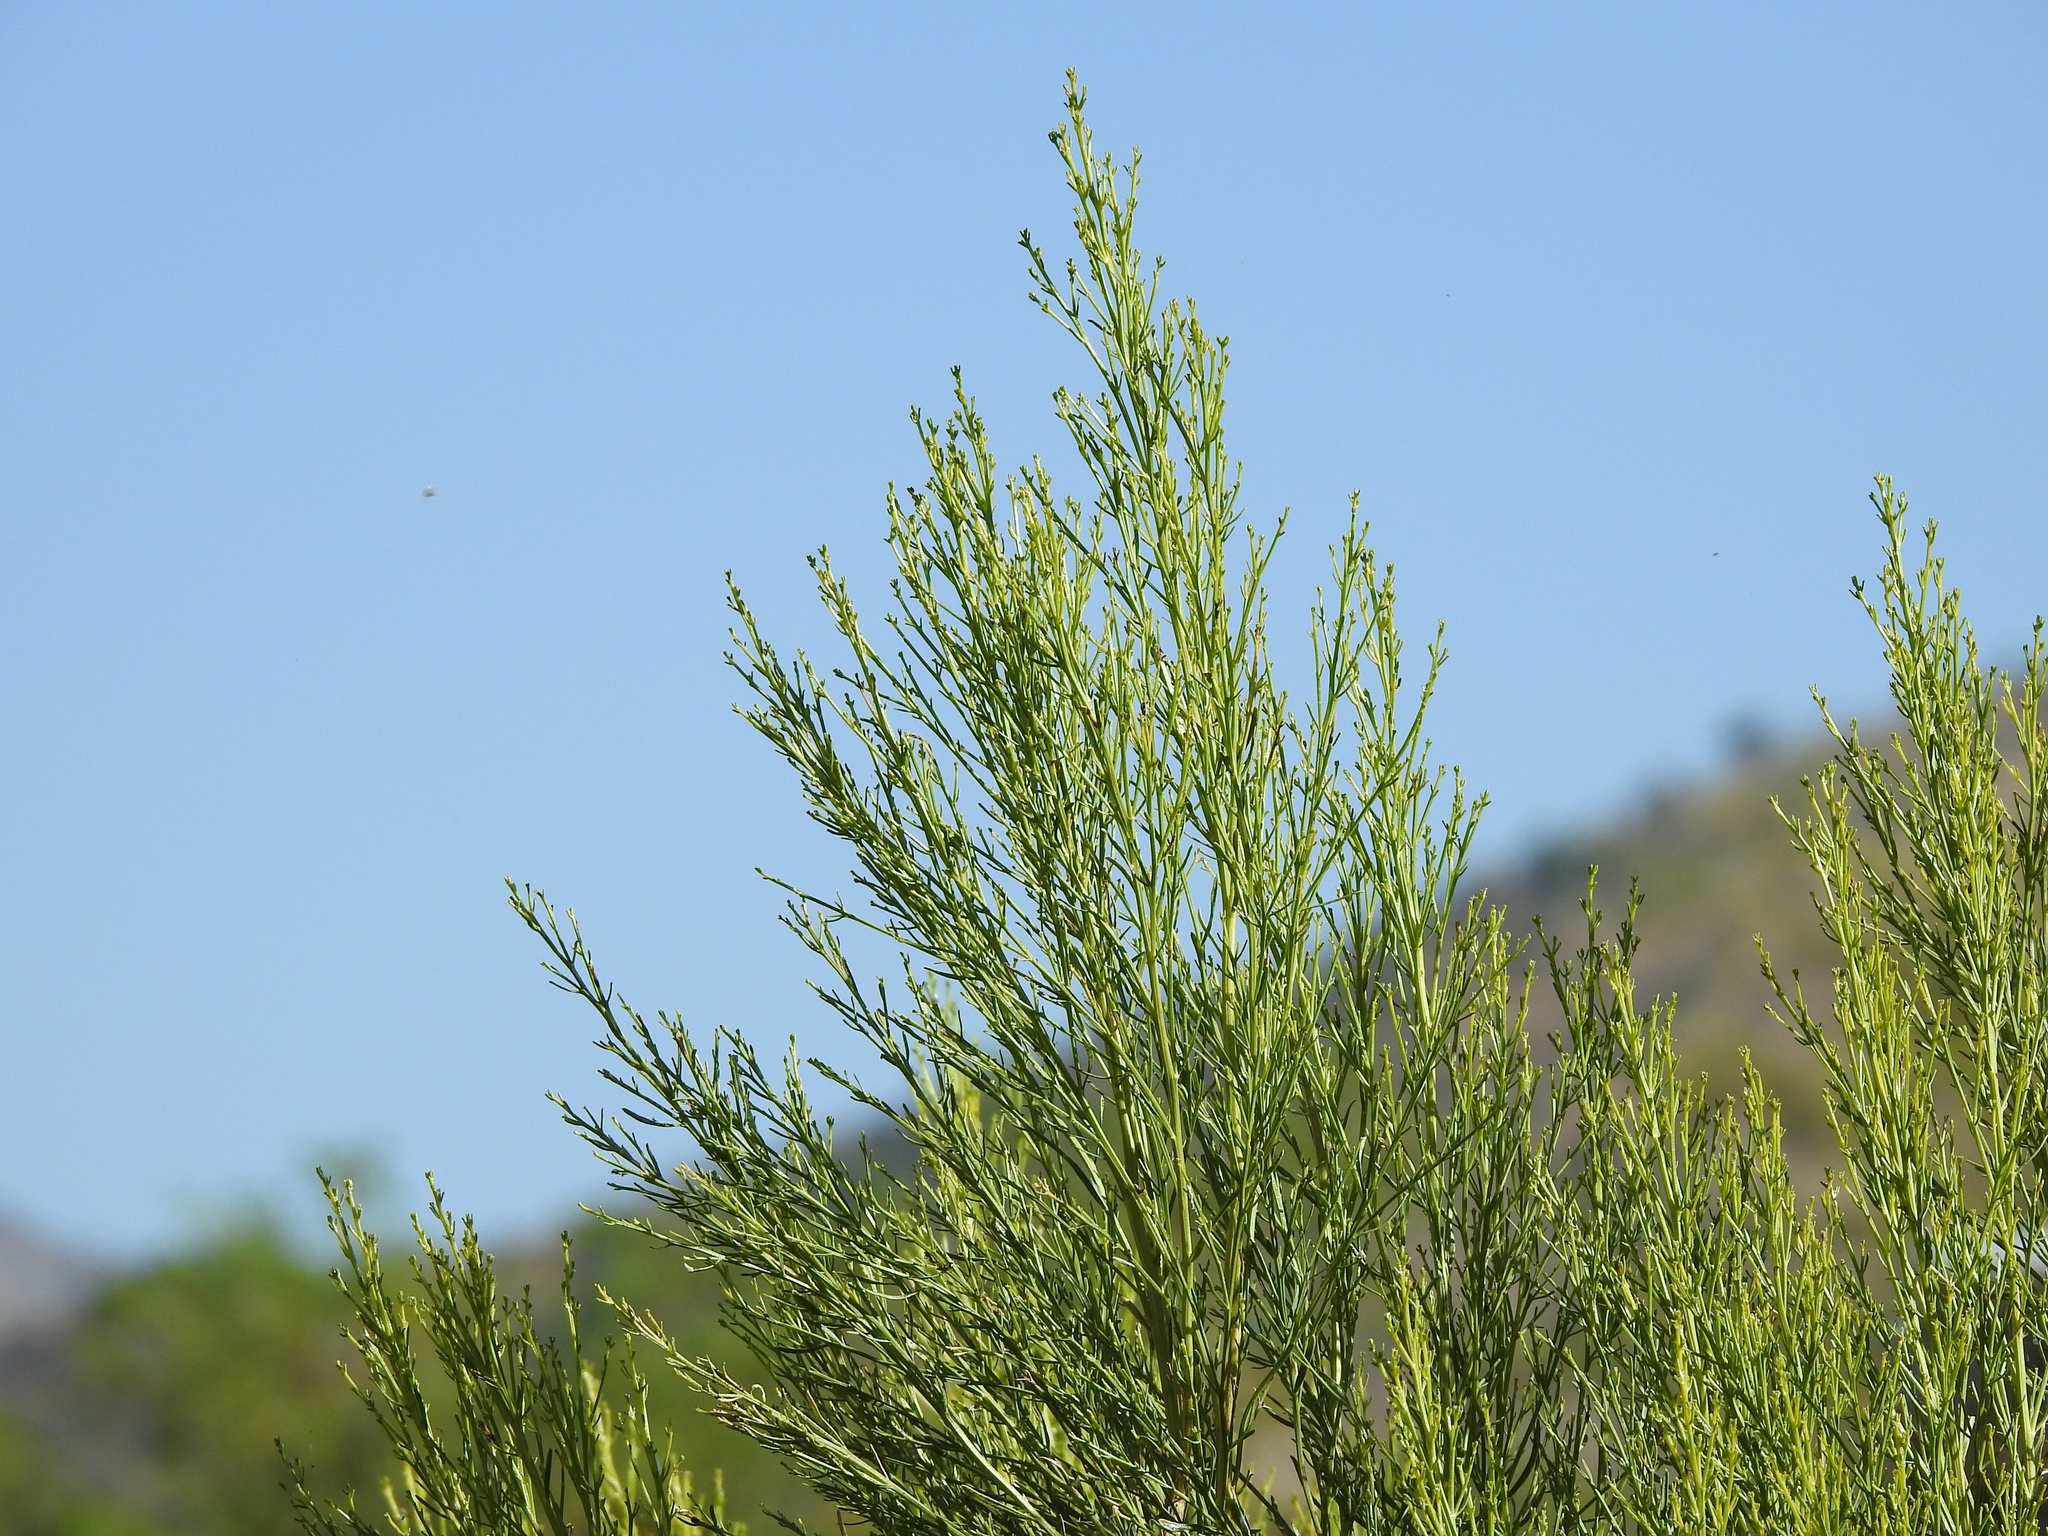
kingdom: Plantae
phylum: Tracheophyta
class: Magnoliopsida
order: Asterales
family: Asteraceae
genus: Baccharis
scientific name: Baccharis sarothroides
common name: Desert-broom
